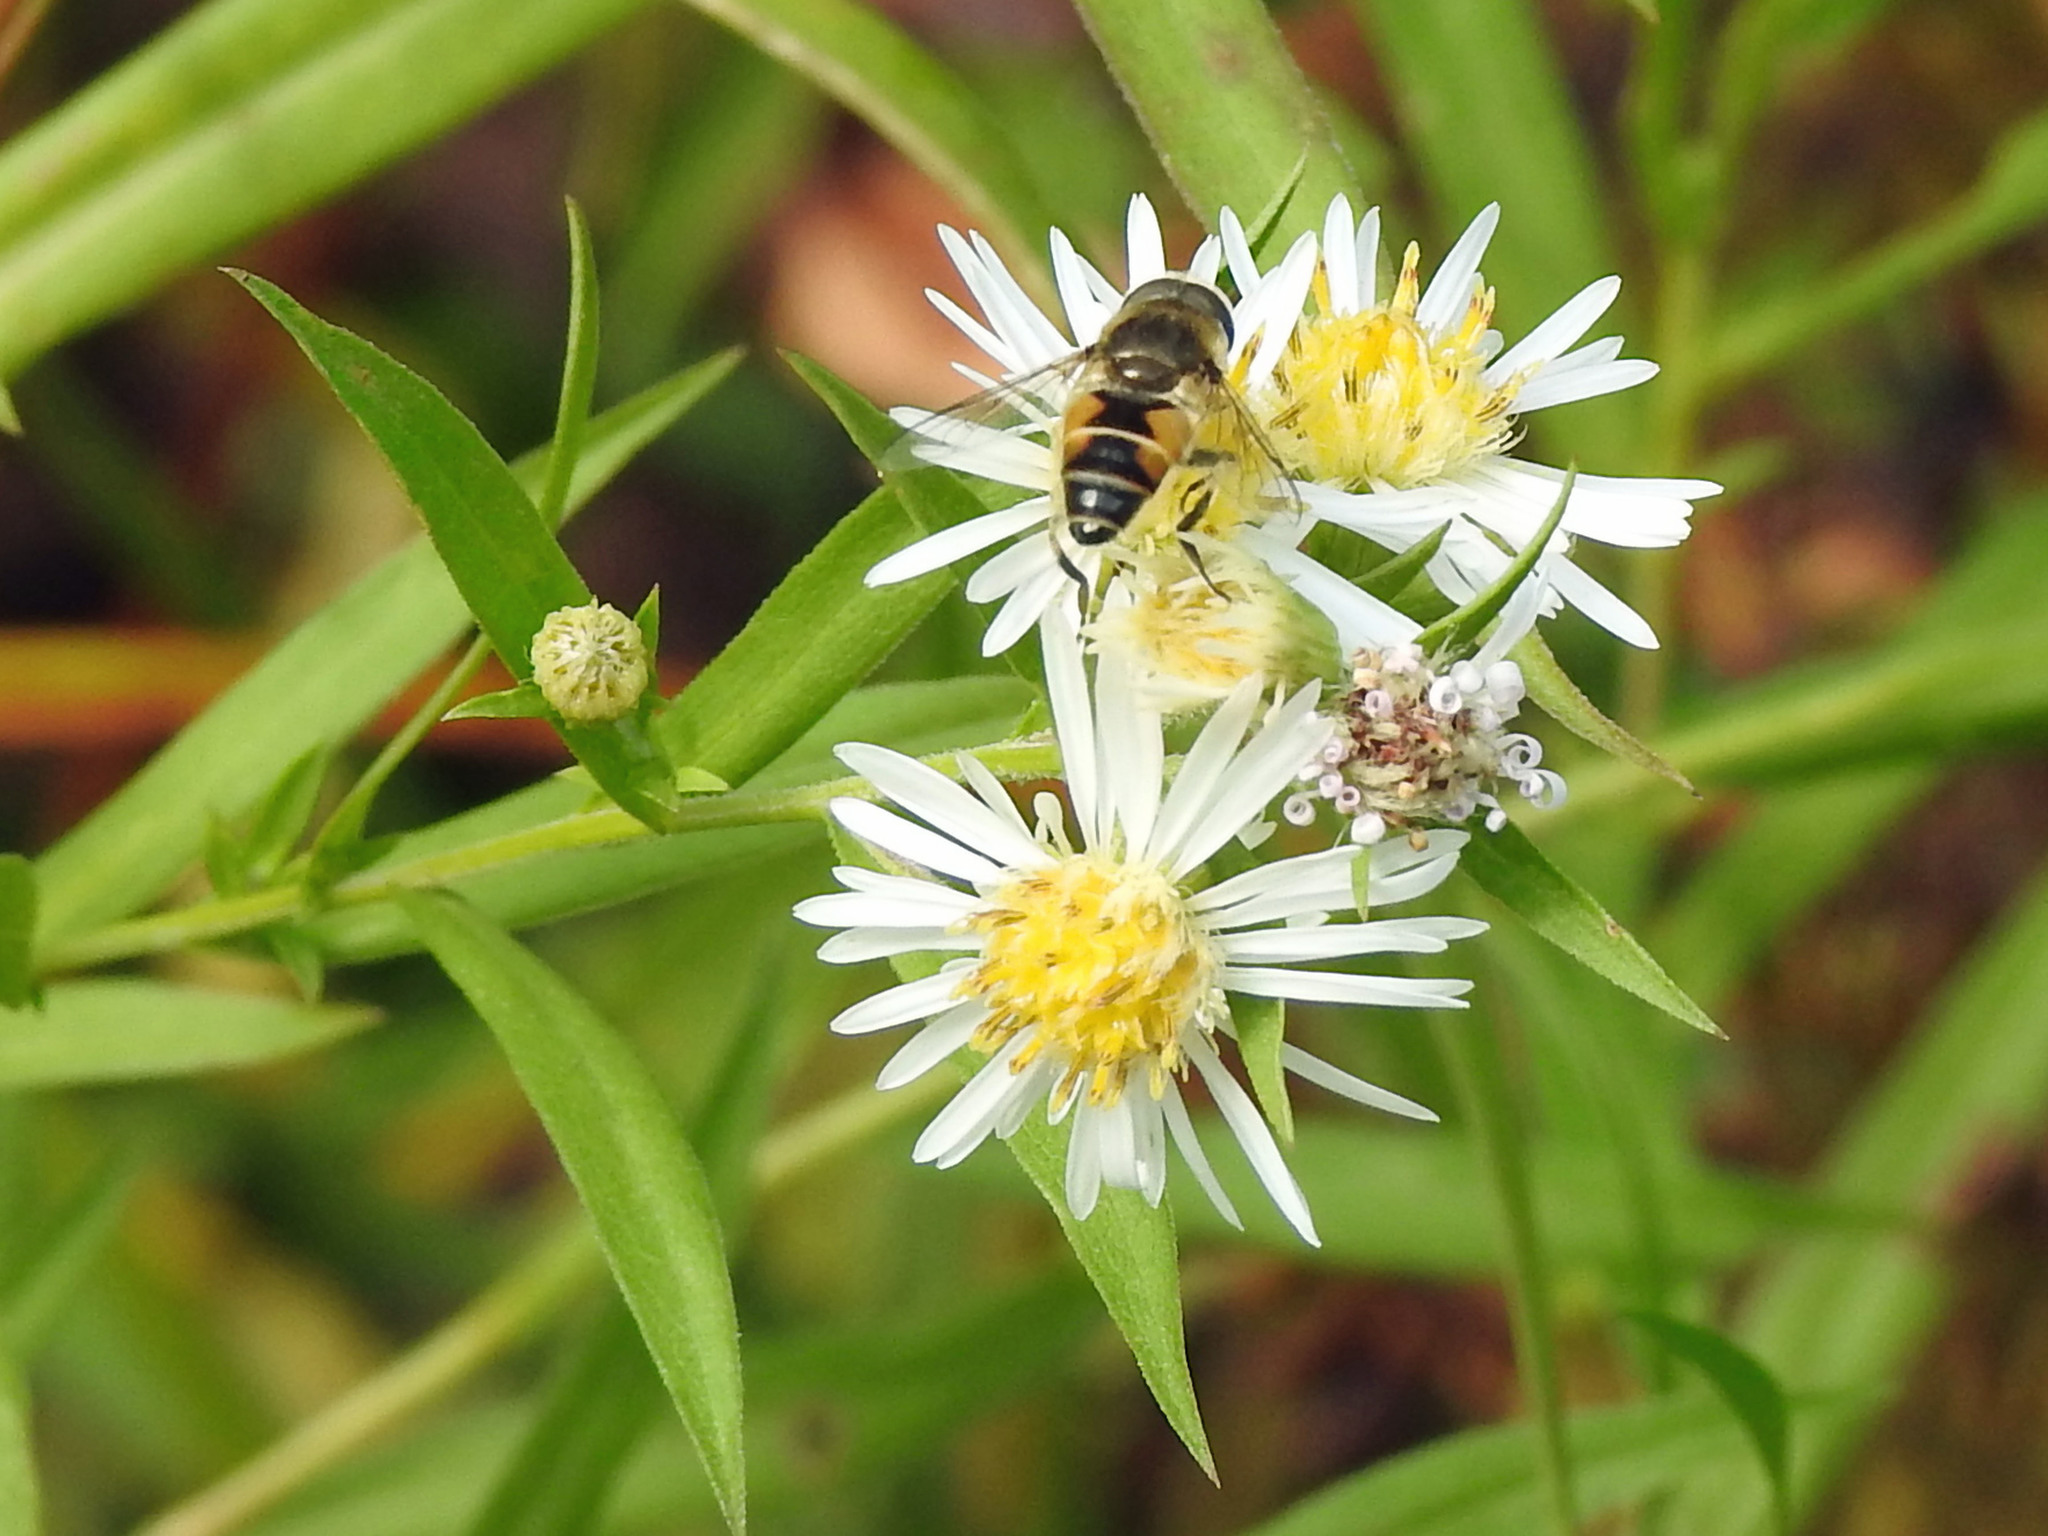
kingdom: Animalia
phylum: Arthropoda
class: Insecta
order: Diptera
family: Syrphidae
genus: Eristalis
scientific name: Eristalis arbustorum
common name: Hover fly
